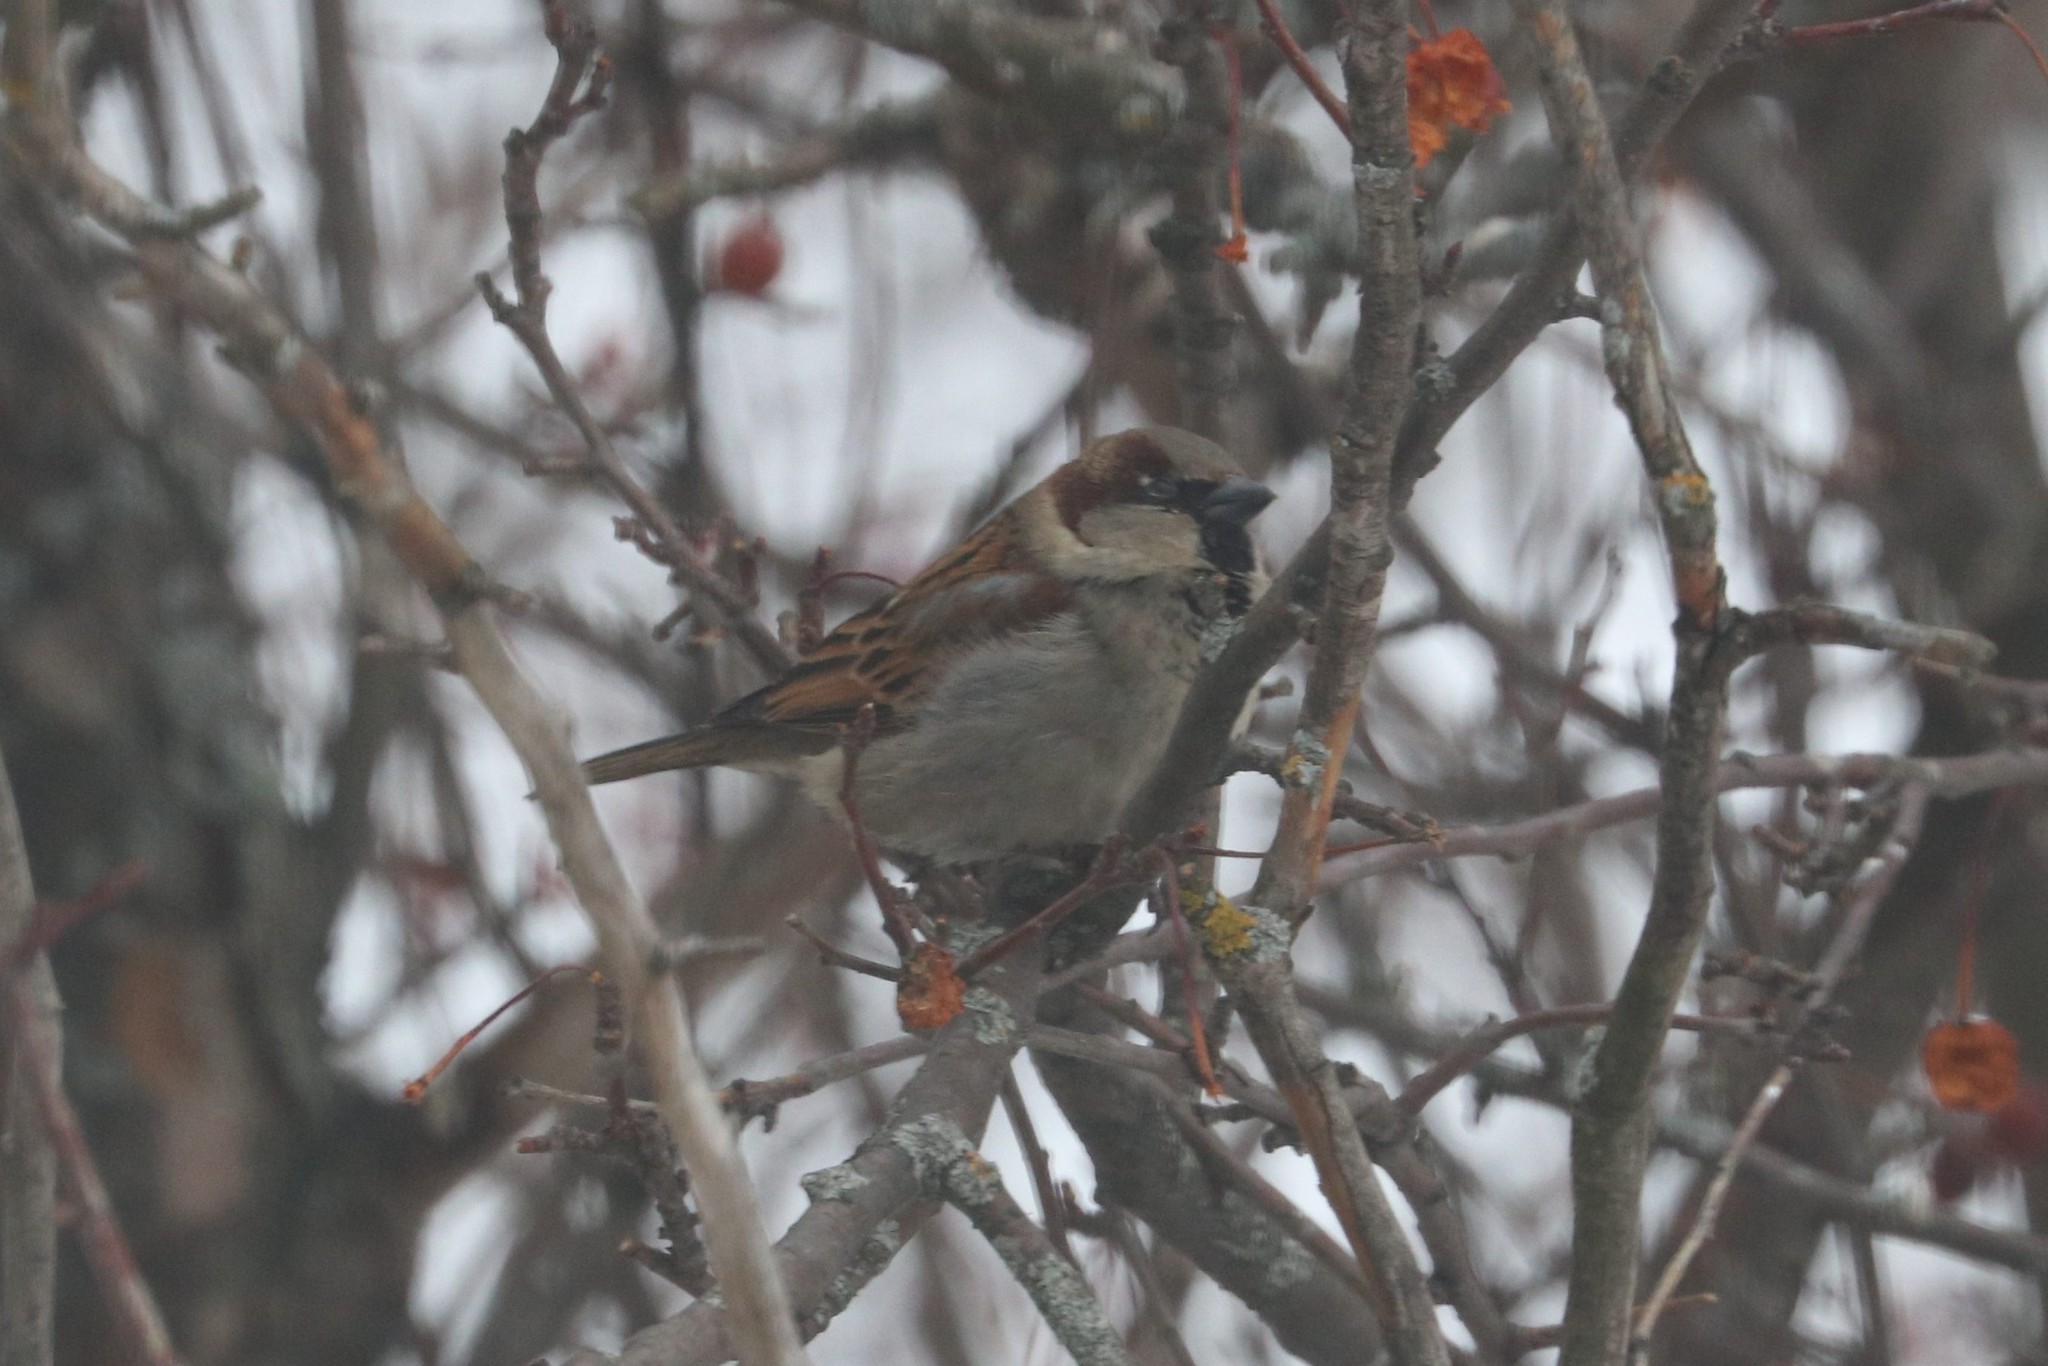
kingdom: Animalia
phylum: Chordata
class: Aves
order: Passeriformes
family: Passeridae
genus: Passer
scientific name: Passer domesticus
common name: House sparrow
